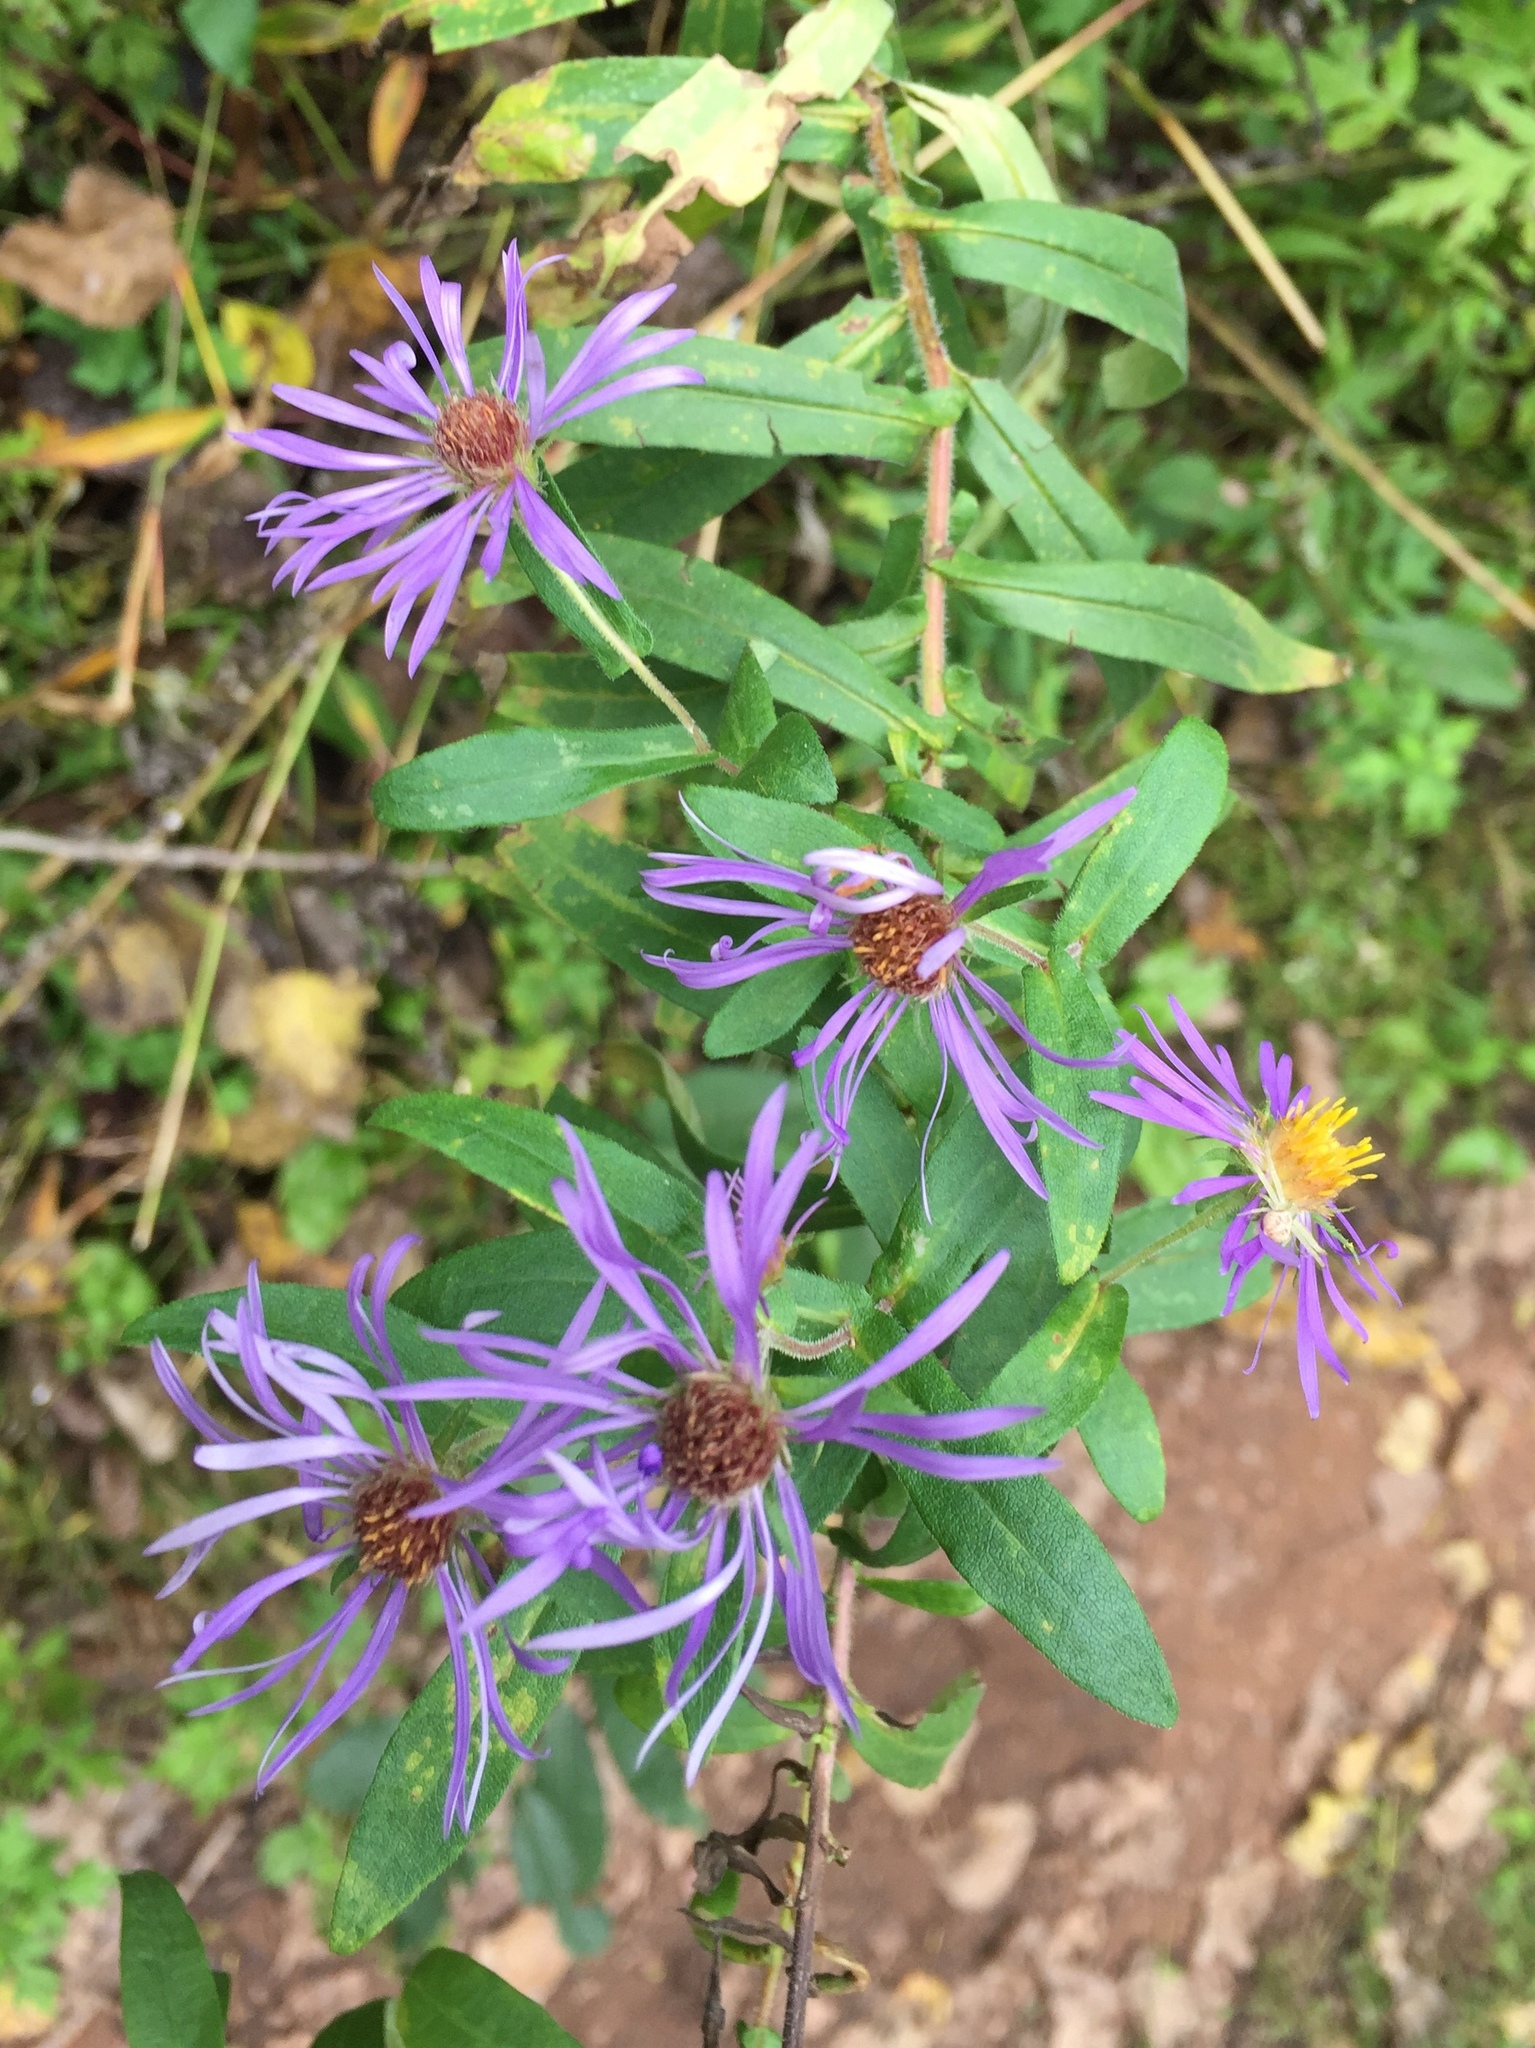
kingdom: Plantae
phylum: Tracheophyta
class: Magnoliopsida
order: Asterales
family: Asteraceae
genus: Symphyotrichum
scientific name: Symphyotrichum novae-angliae
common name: Michaelmas daisy
